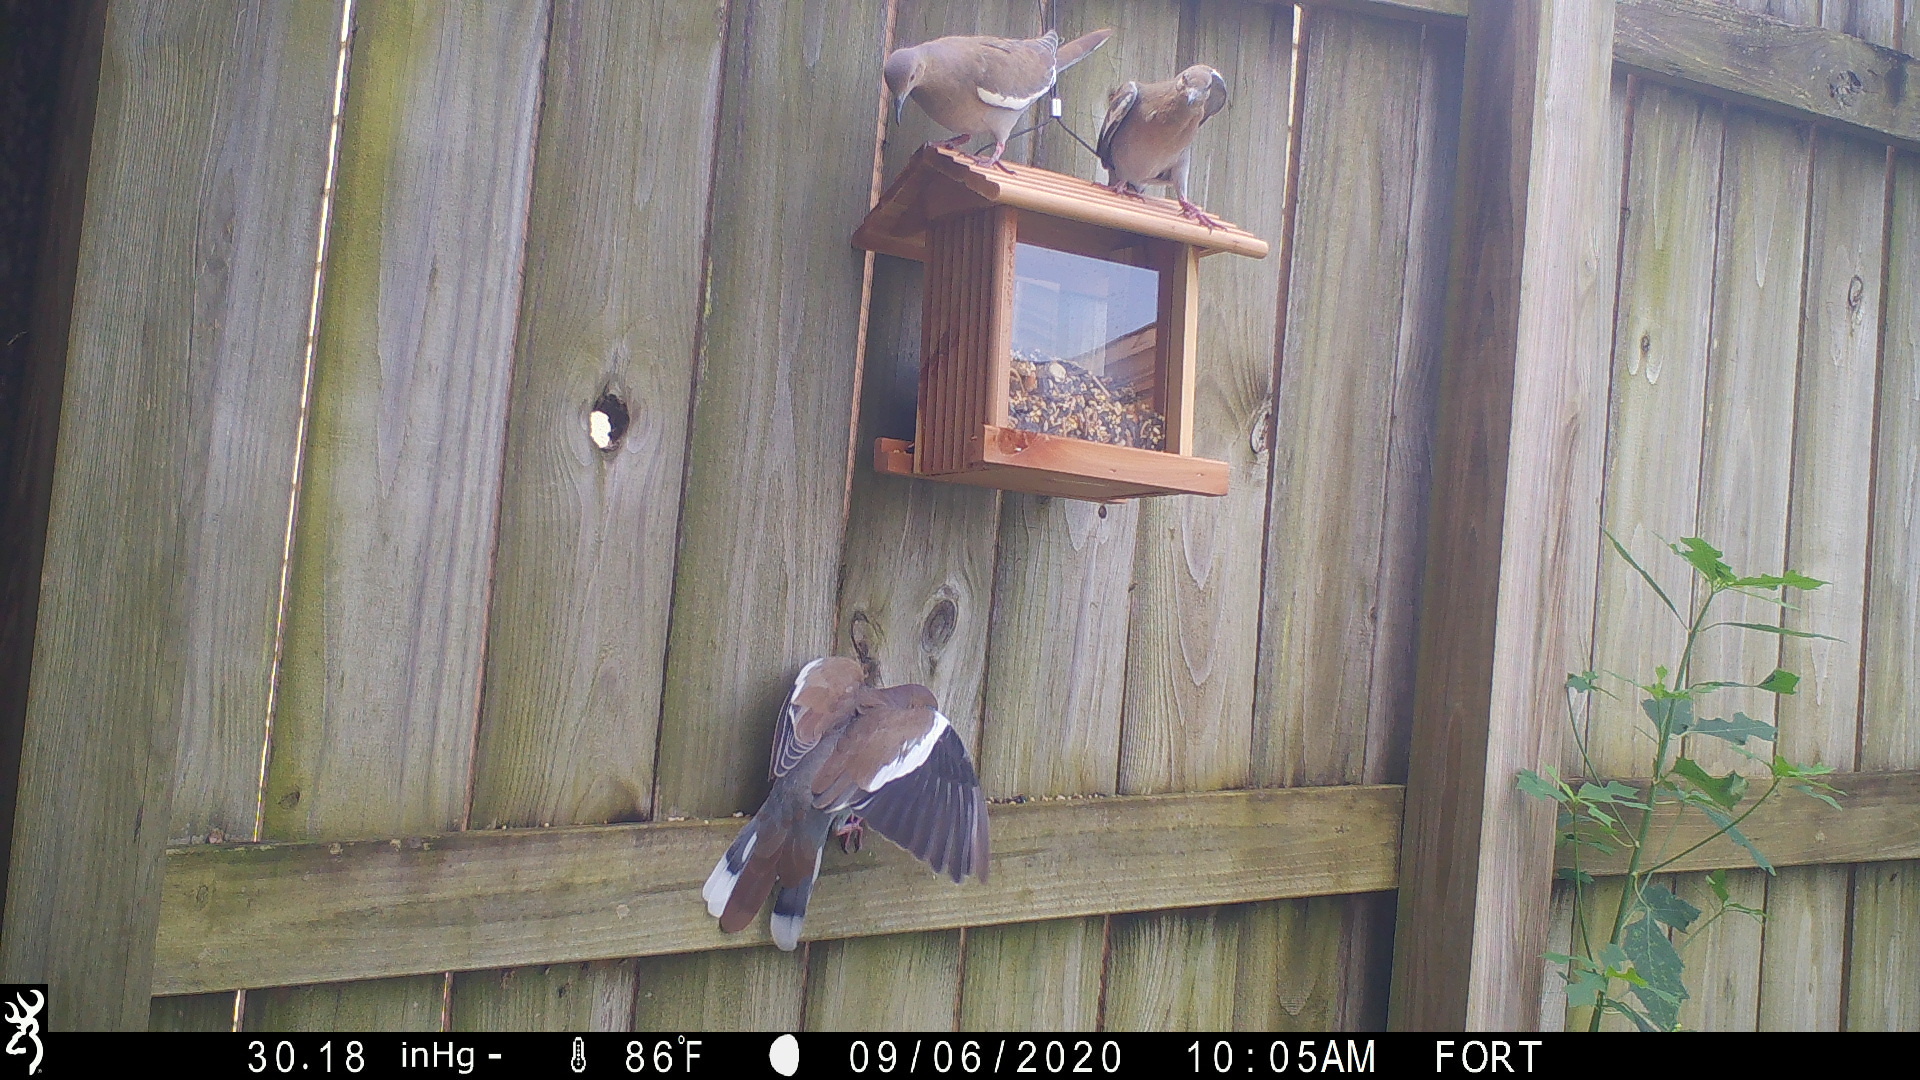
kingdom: Animalia
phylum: Chordata
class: Aves
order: Columbiformes
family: Columbidae
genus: Zenaida
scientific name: Zenaida asiatica
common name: White-winged dove
